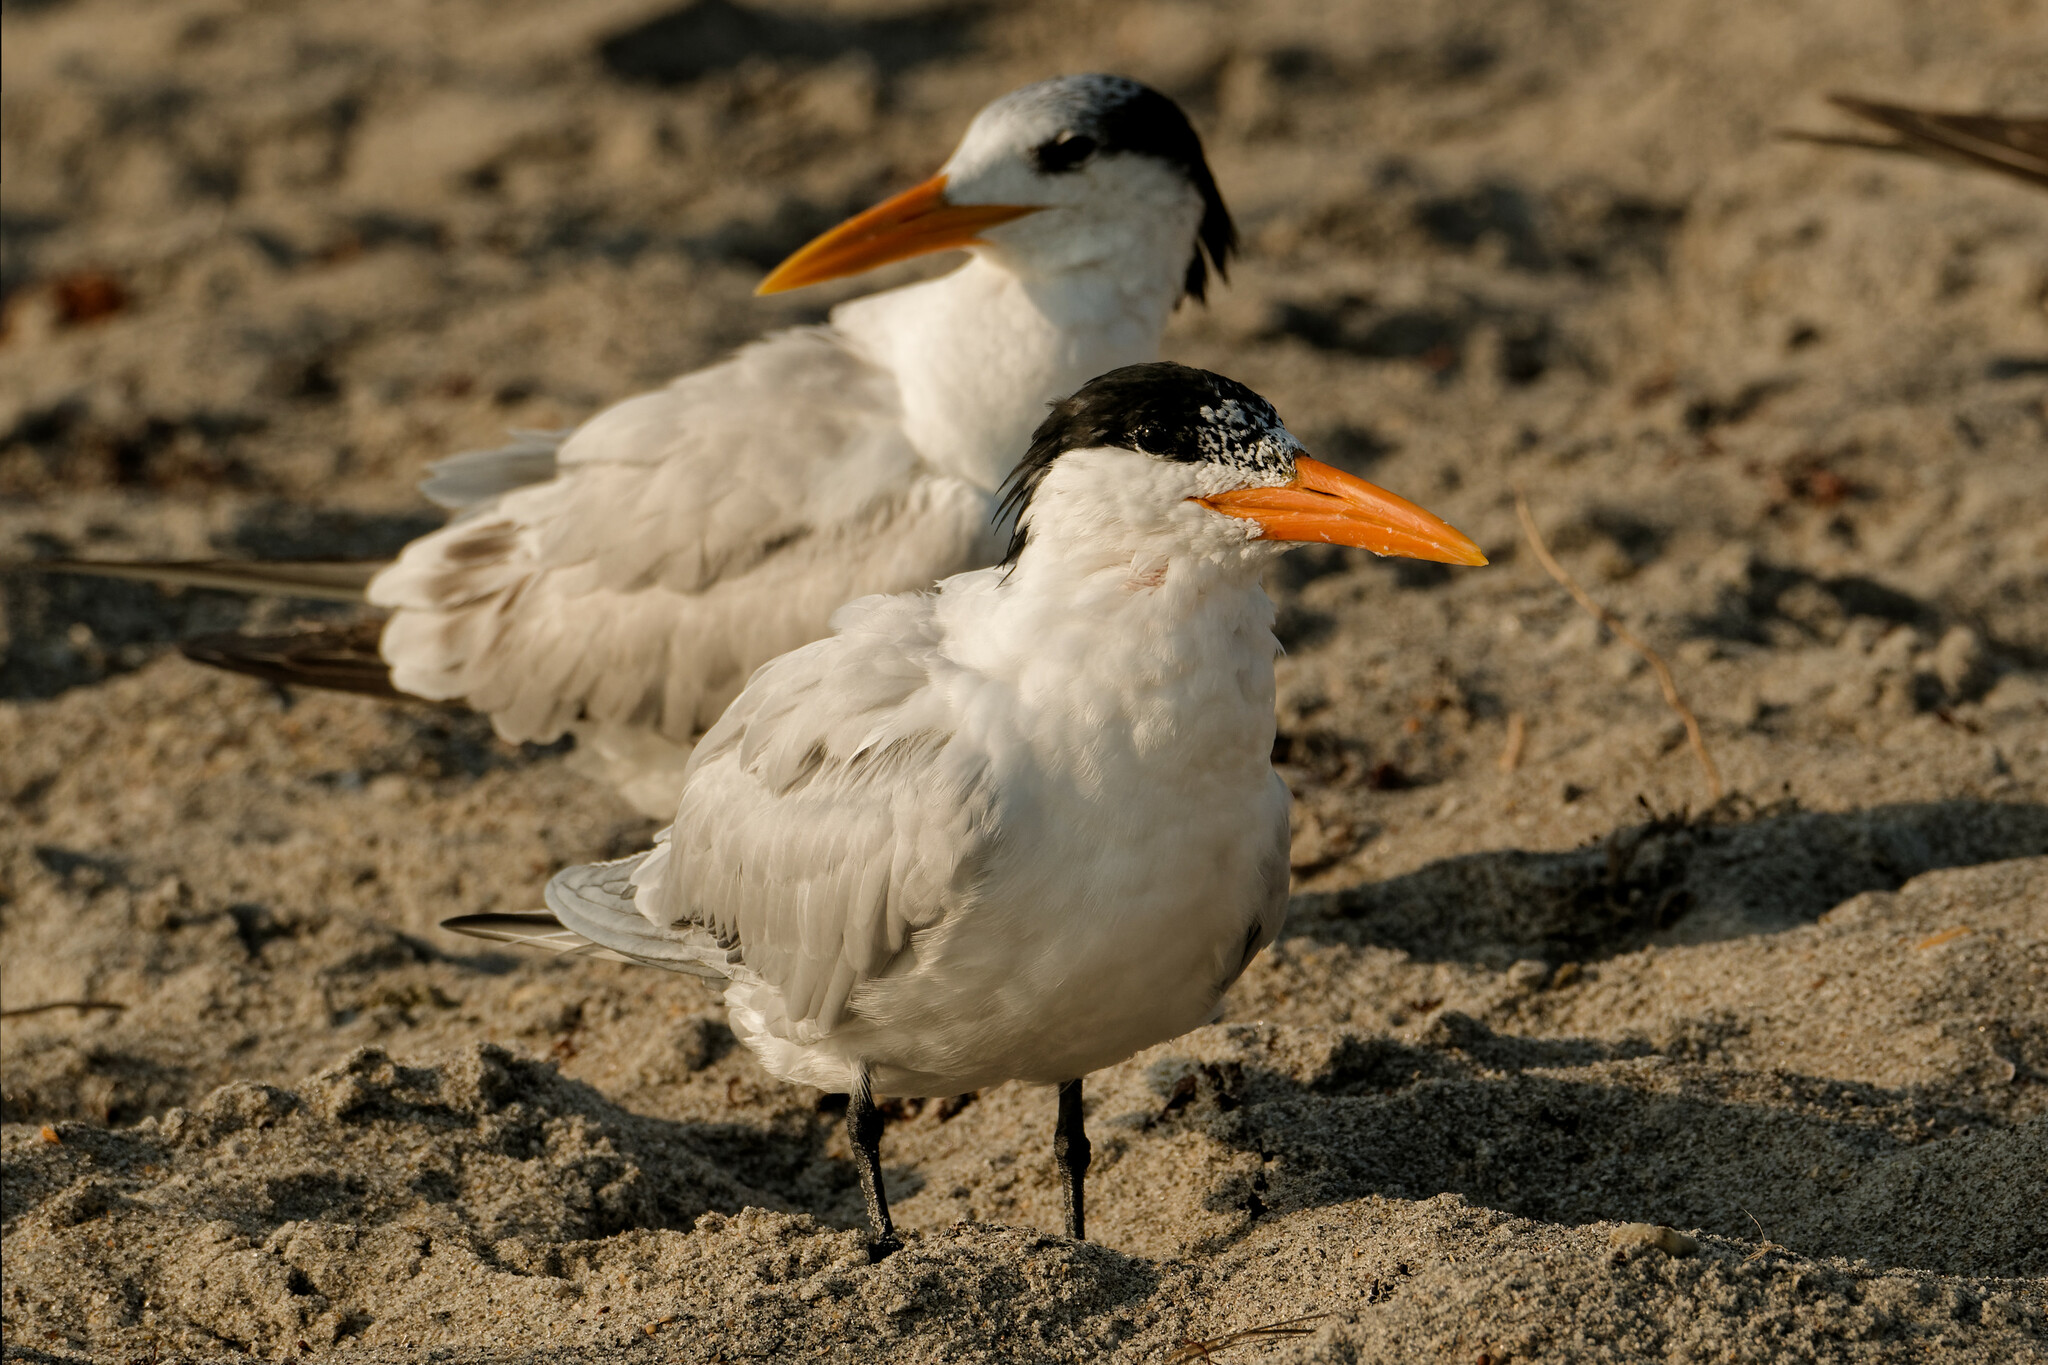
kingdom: Animalia
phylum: Chordata
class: Aves
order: Charadriiformes
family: Laridae
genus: Thalasseus
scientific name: Thalasseus maximus
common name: Royal tern
